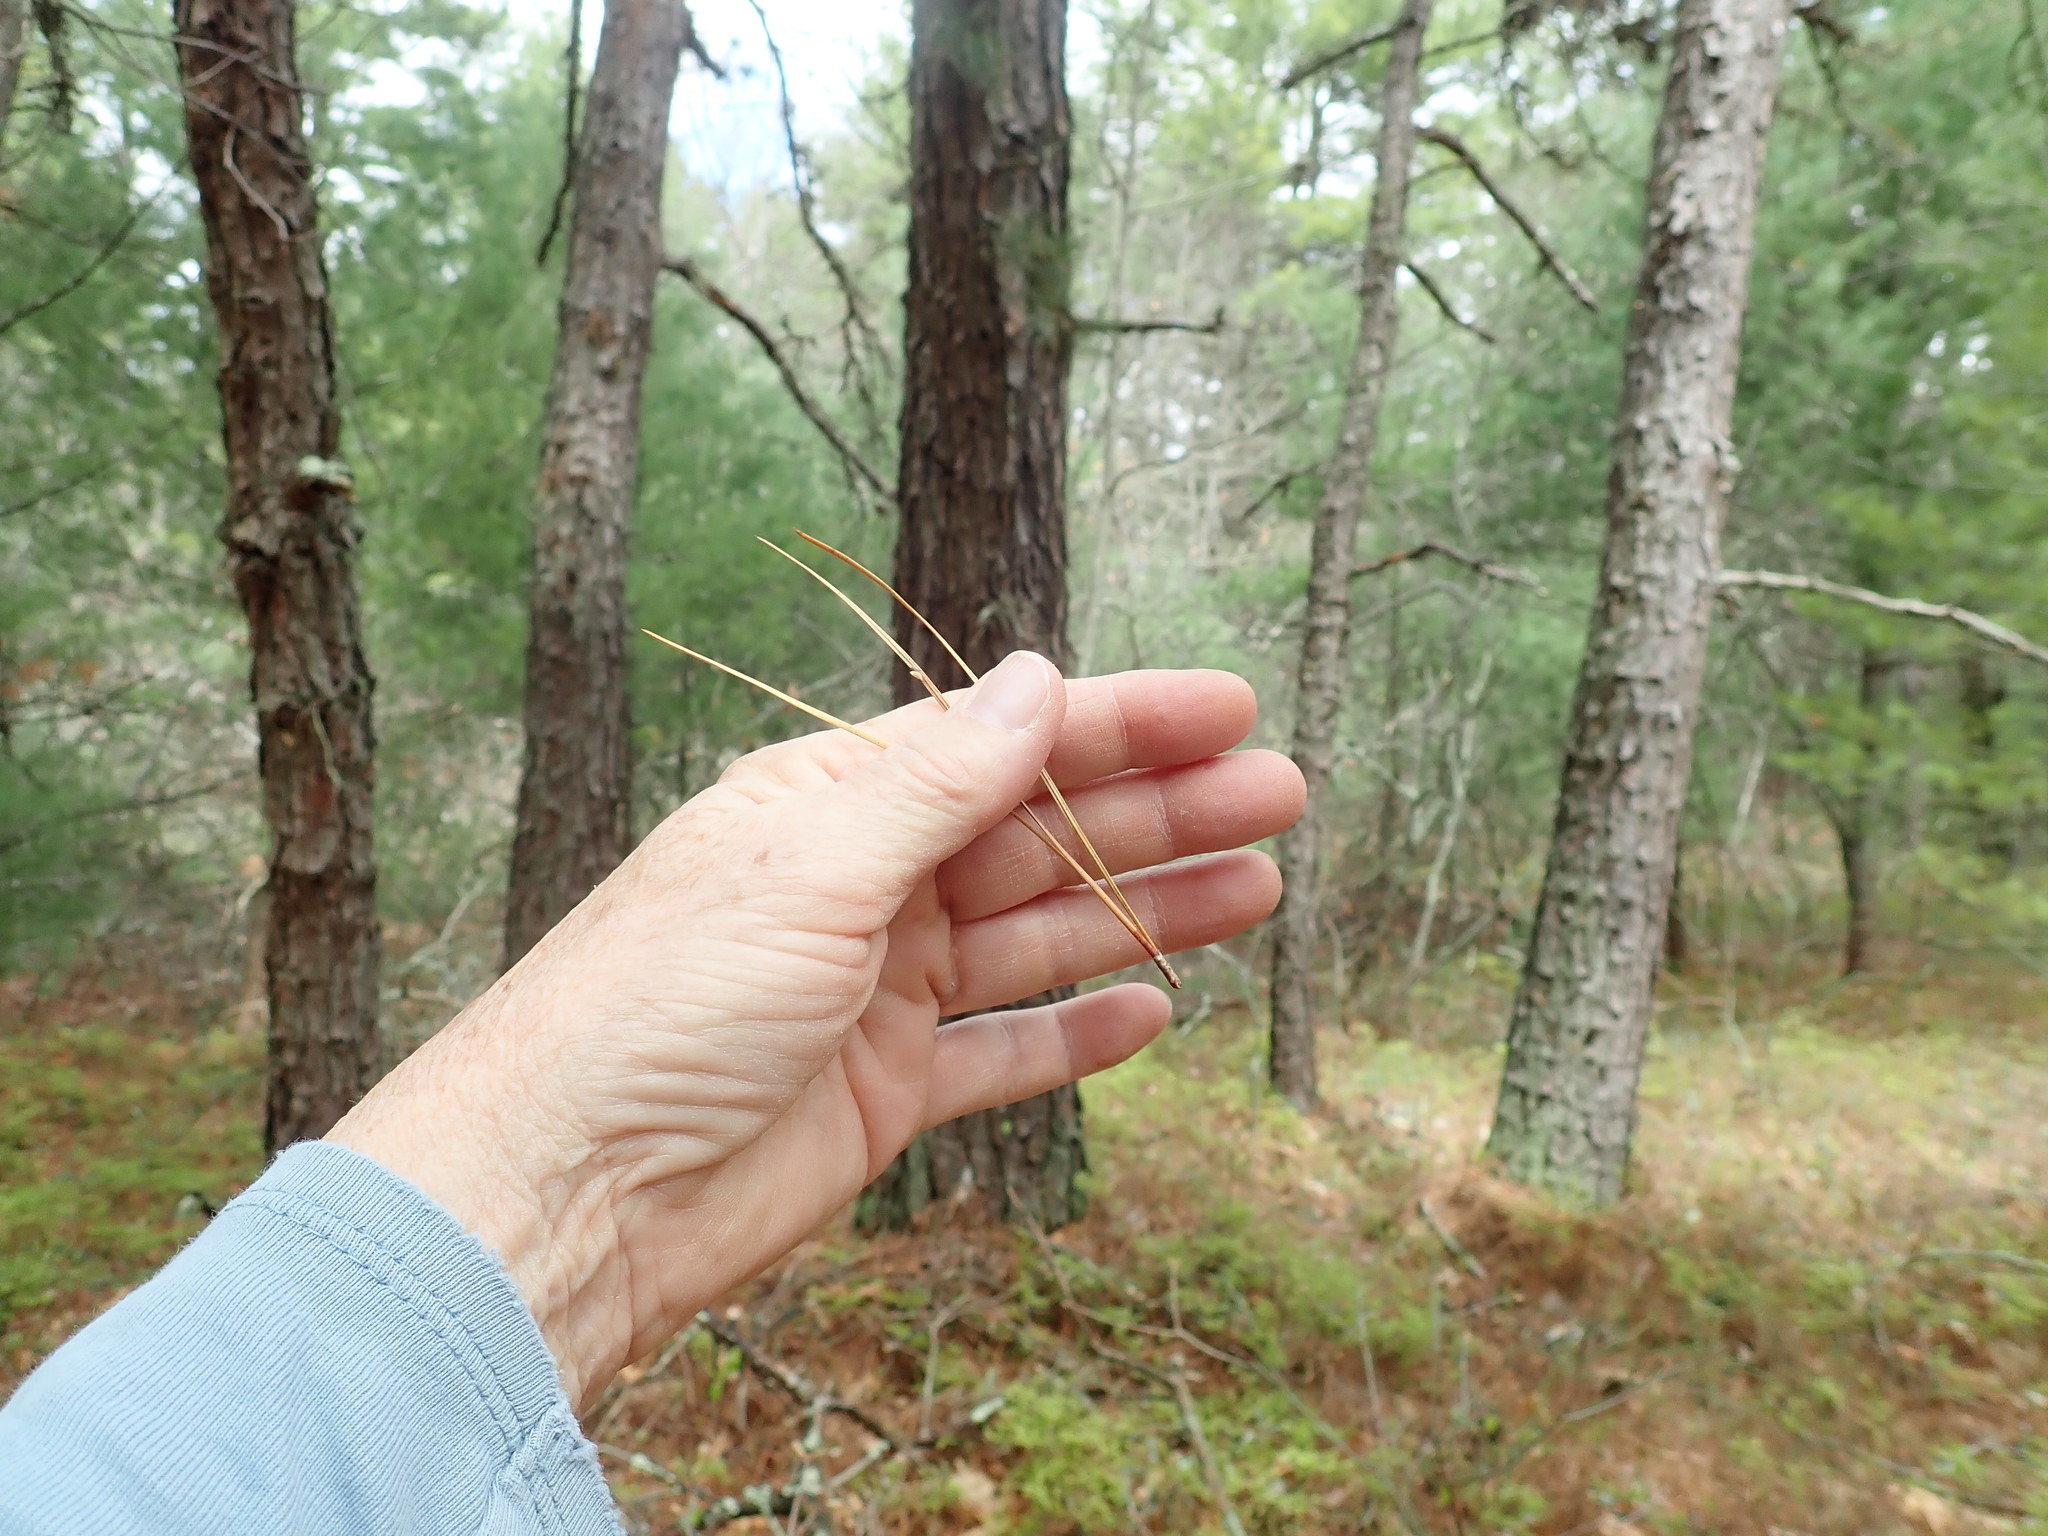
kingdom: Plantae
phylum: Tracheophyta
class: Pinopsida
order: Pinales
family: Pinaceae
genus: Pinus
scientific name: Pinus rigida
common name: Pitch pine
